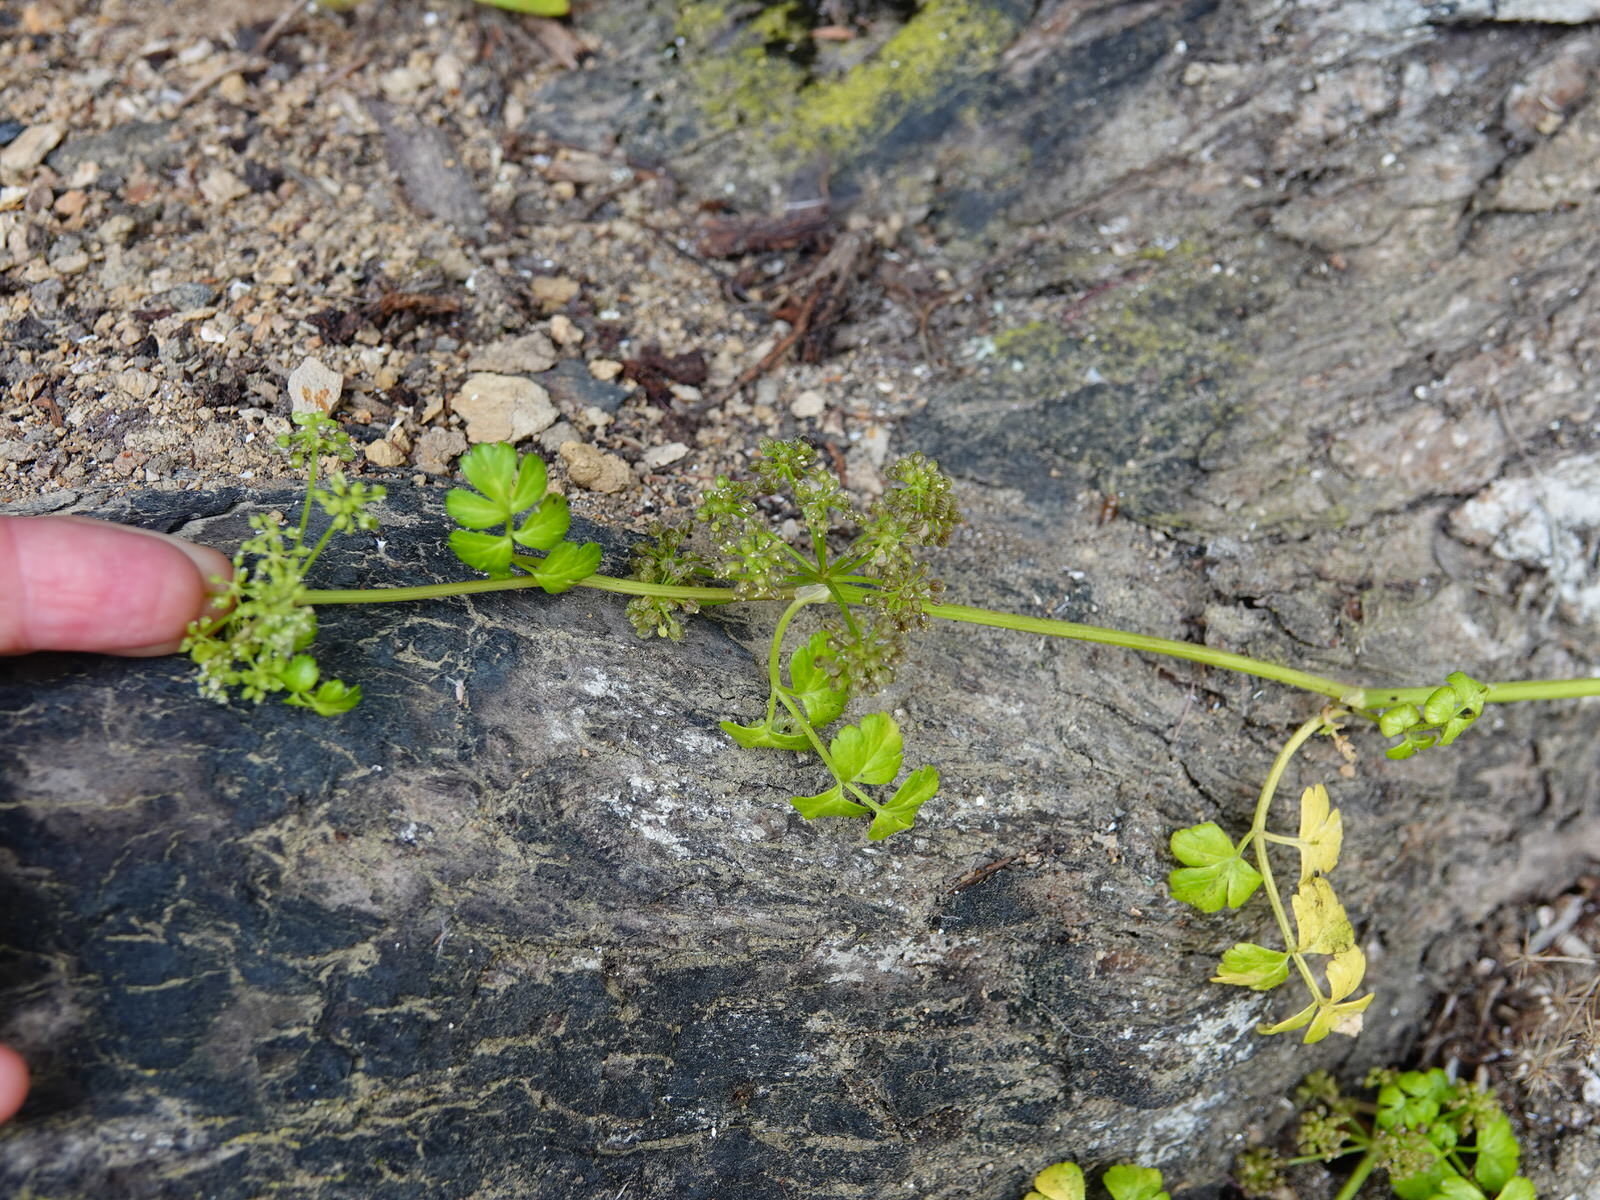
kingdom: Plantae
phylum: Tracheophyta
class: Magnoliopsida
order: Apiales
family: Apiaceae
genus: Apium
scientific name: Apium prostratum
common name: Prostrate marshwort
